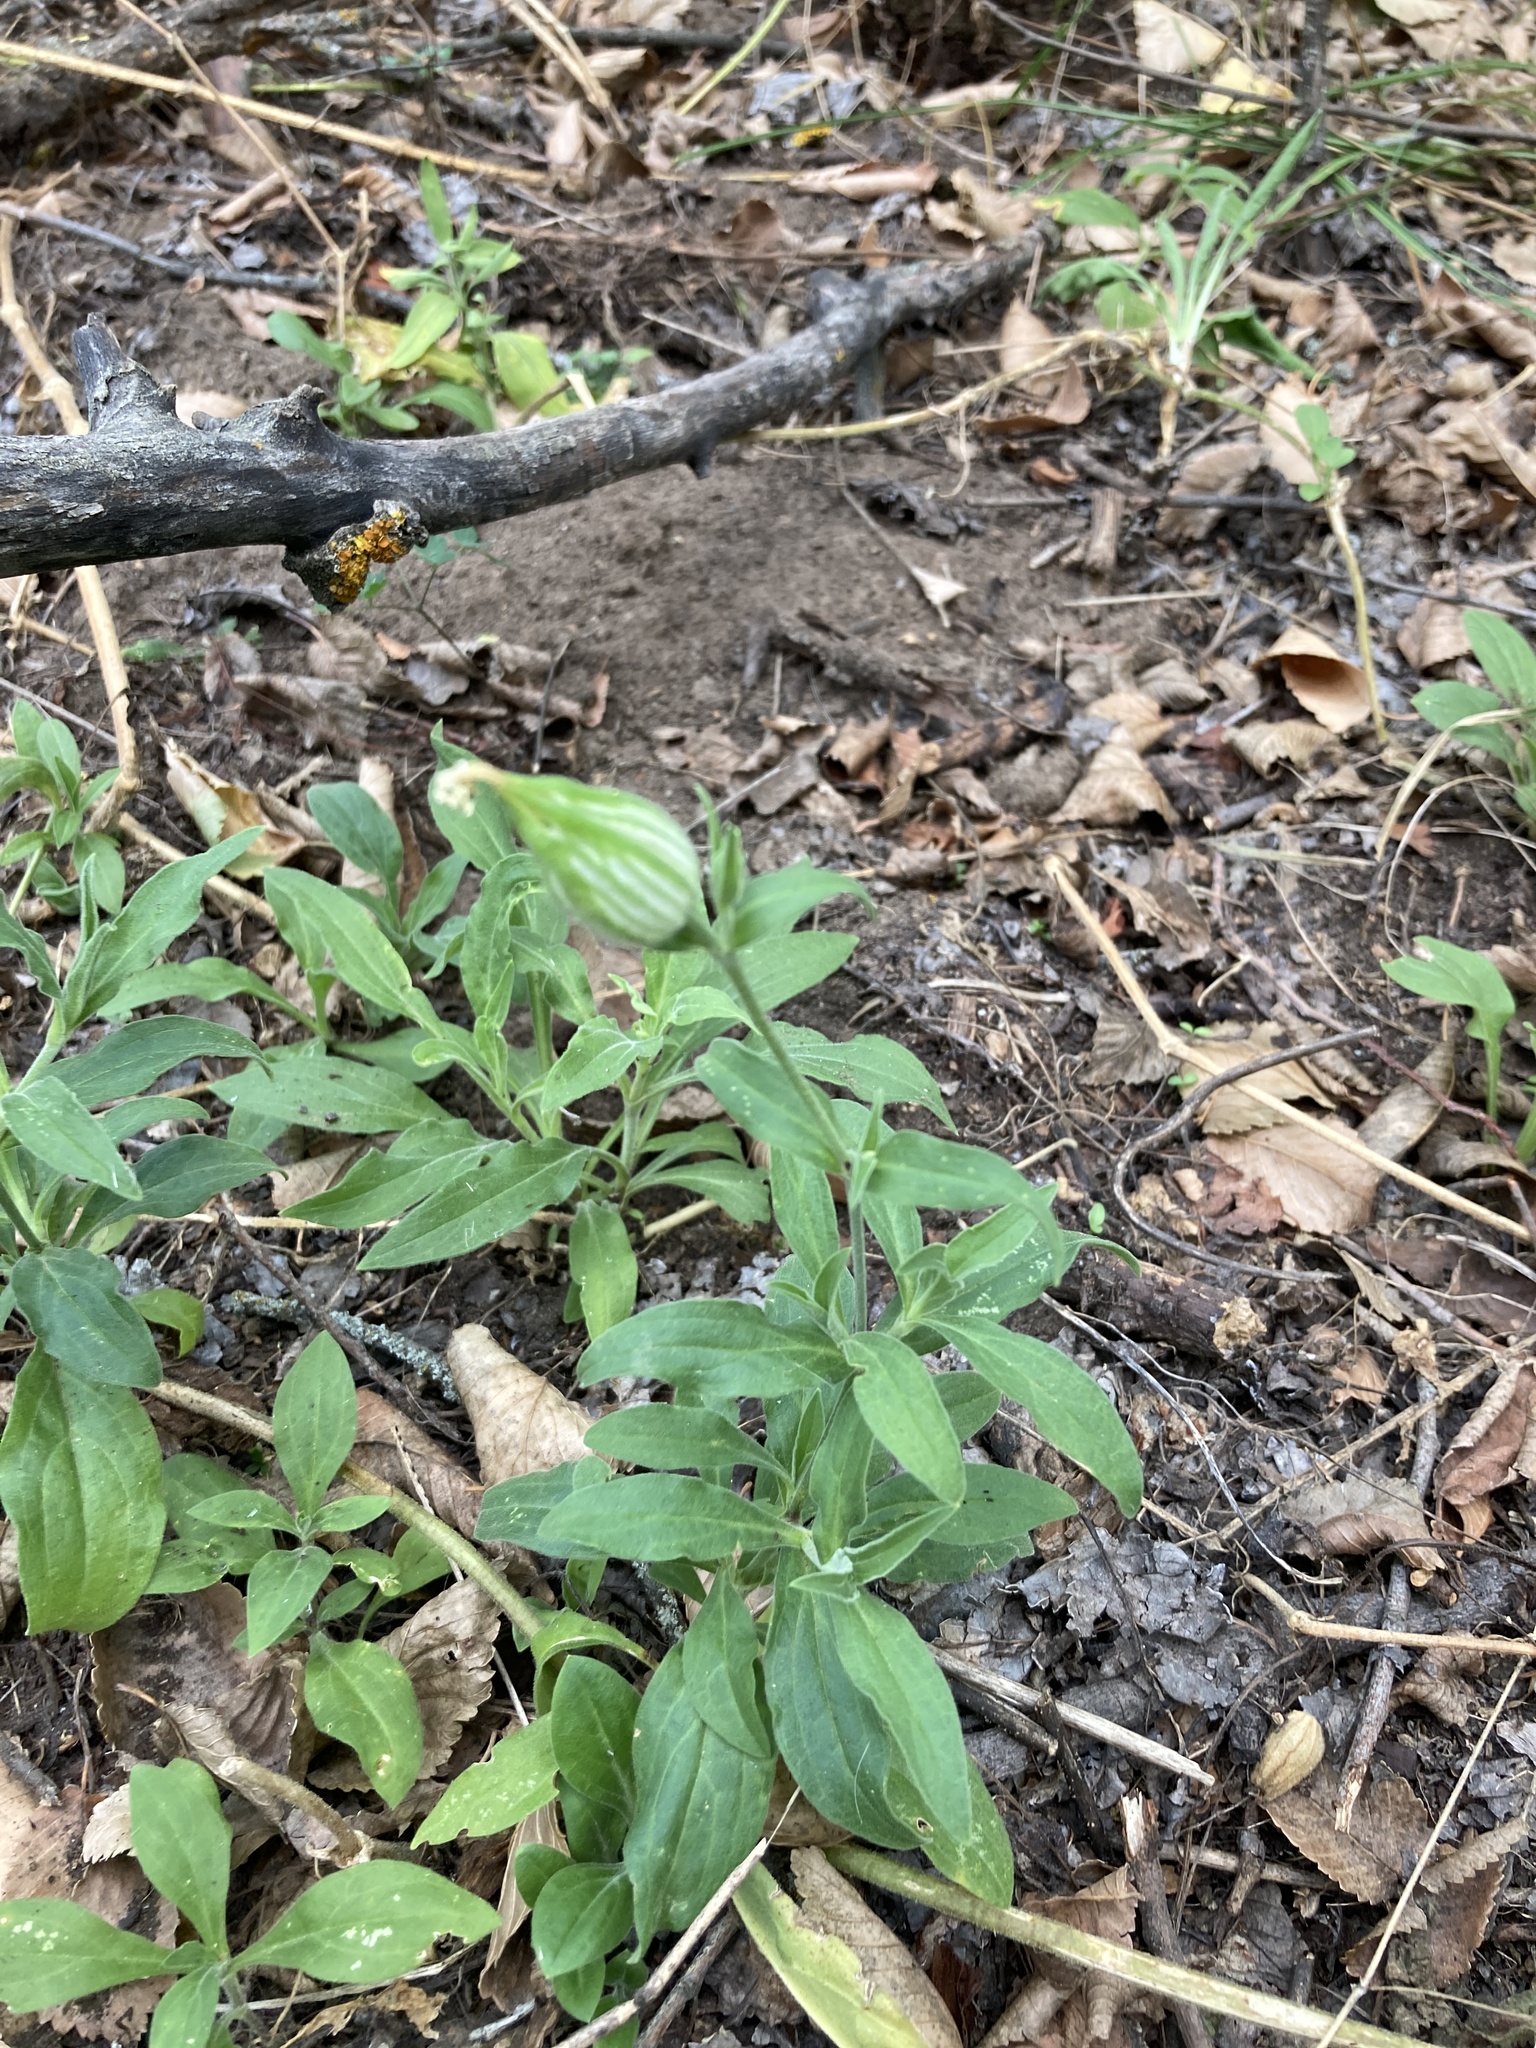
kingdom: Plantae
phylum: Tracheophyta
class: Magnoliopsida
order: Caryophyllales
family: Caryophyllaceae
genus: Silene
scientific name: Silene latifolia
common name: White campion
